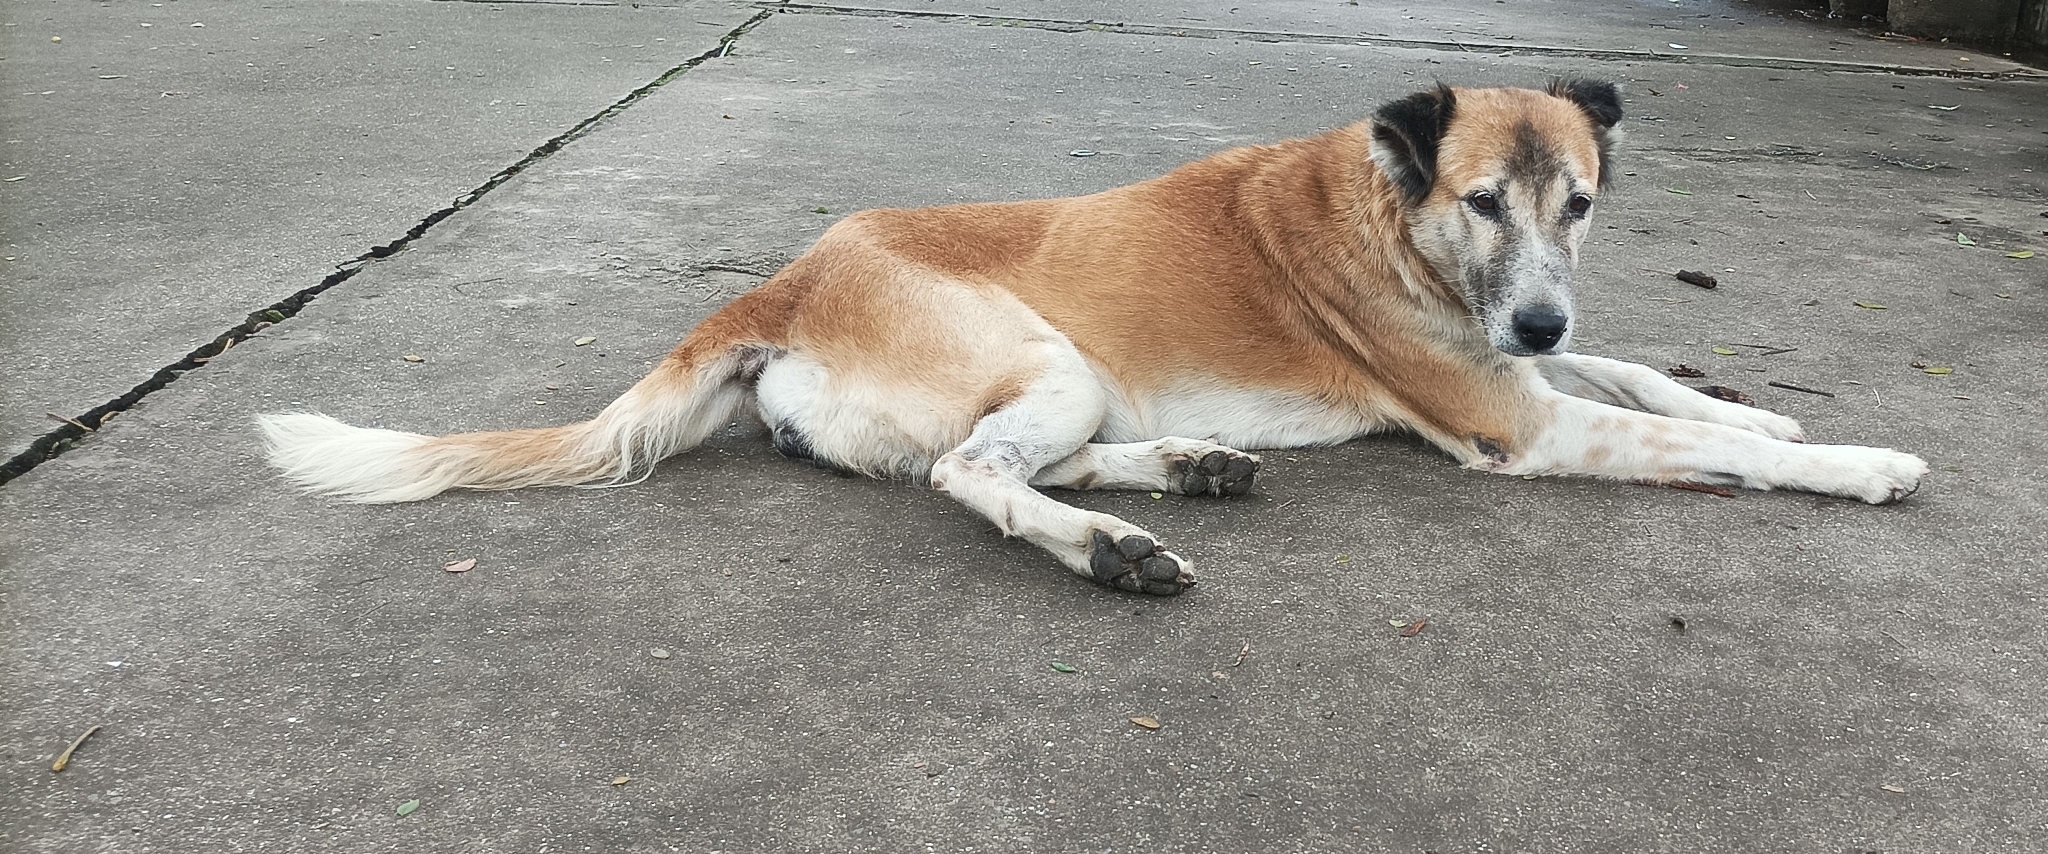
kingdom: Animalia
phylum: Chordata
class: Mammalia
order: Carnivora
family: Canidae
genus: Canis
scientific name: Canis lupus
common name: Gray wolf
